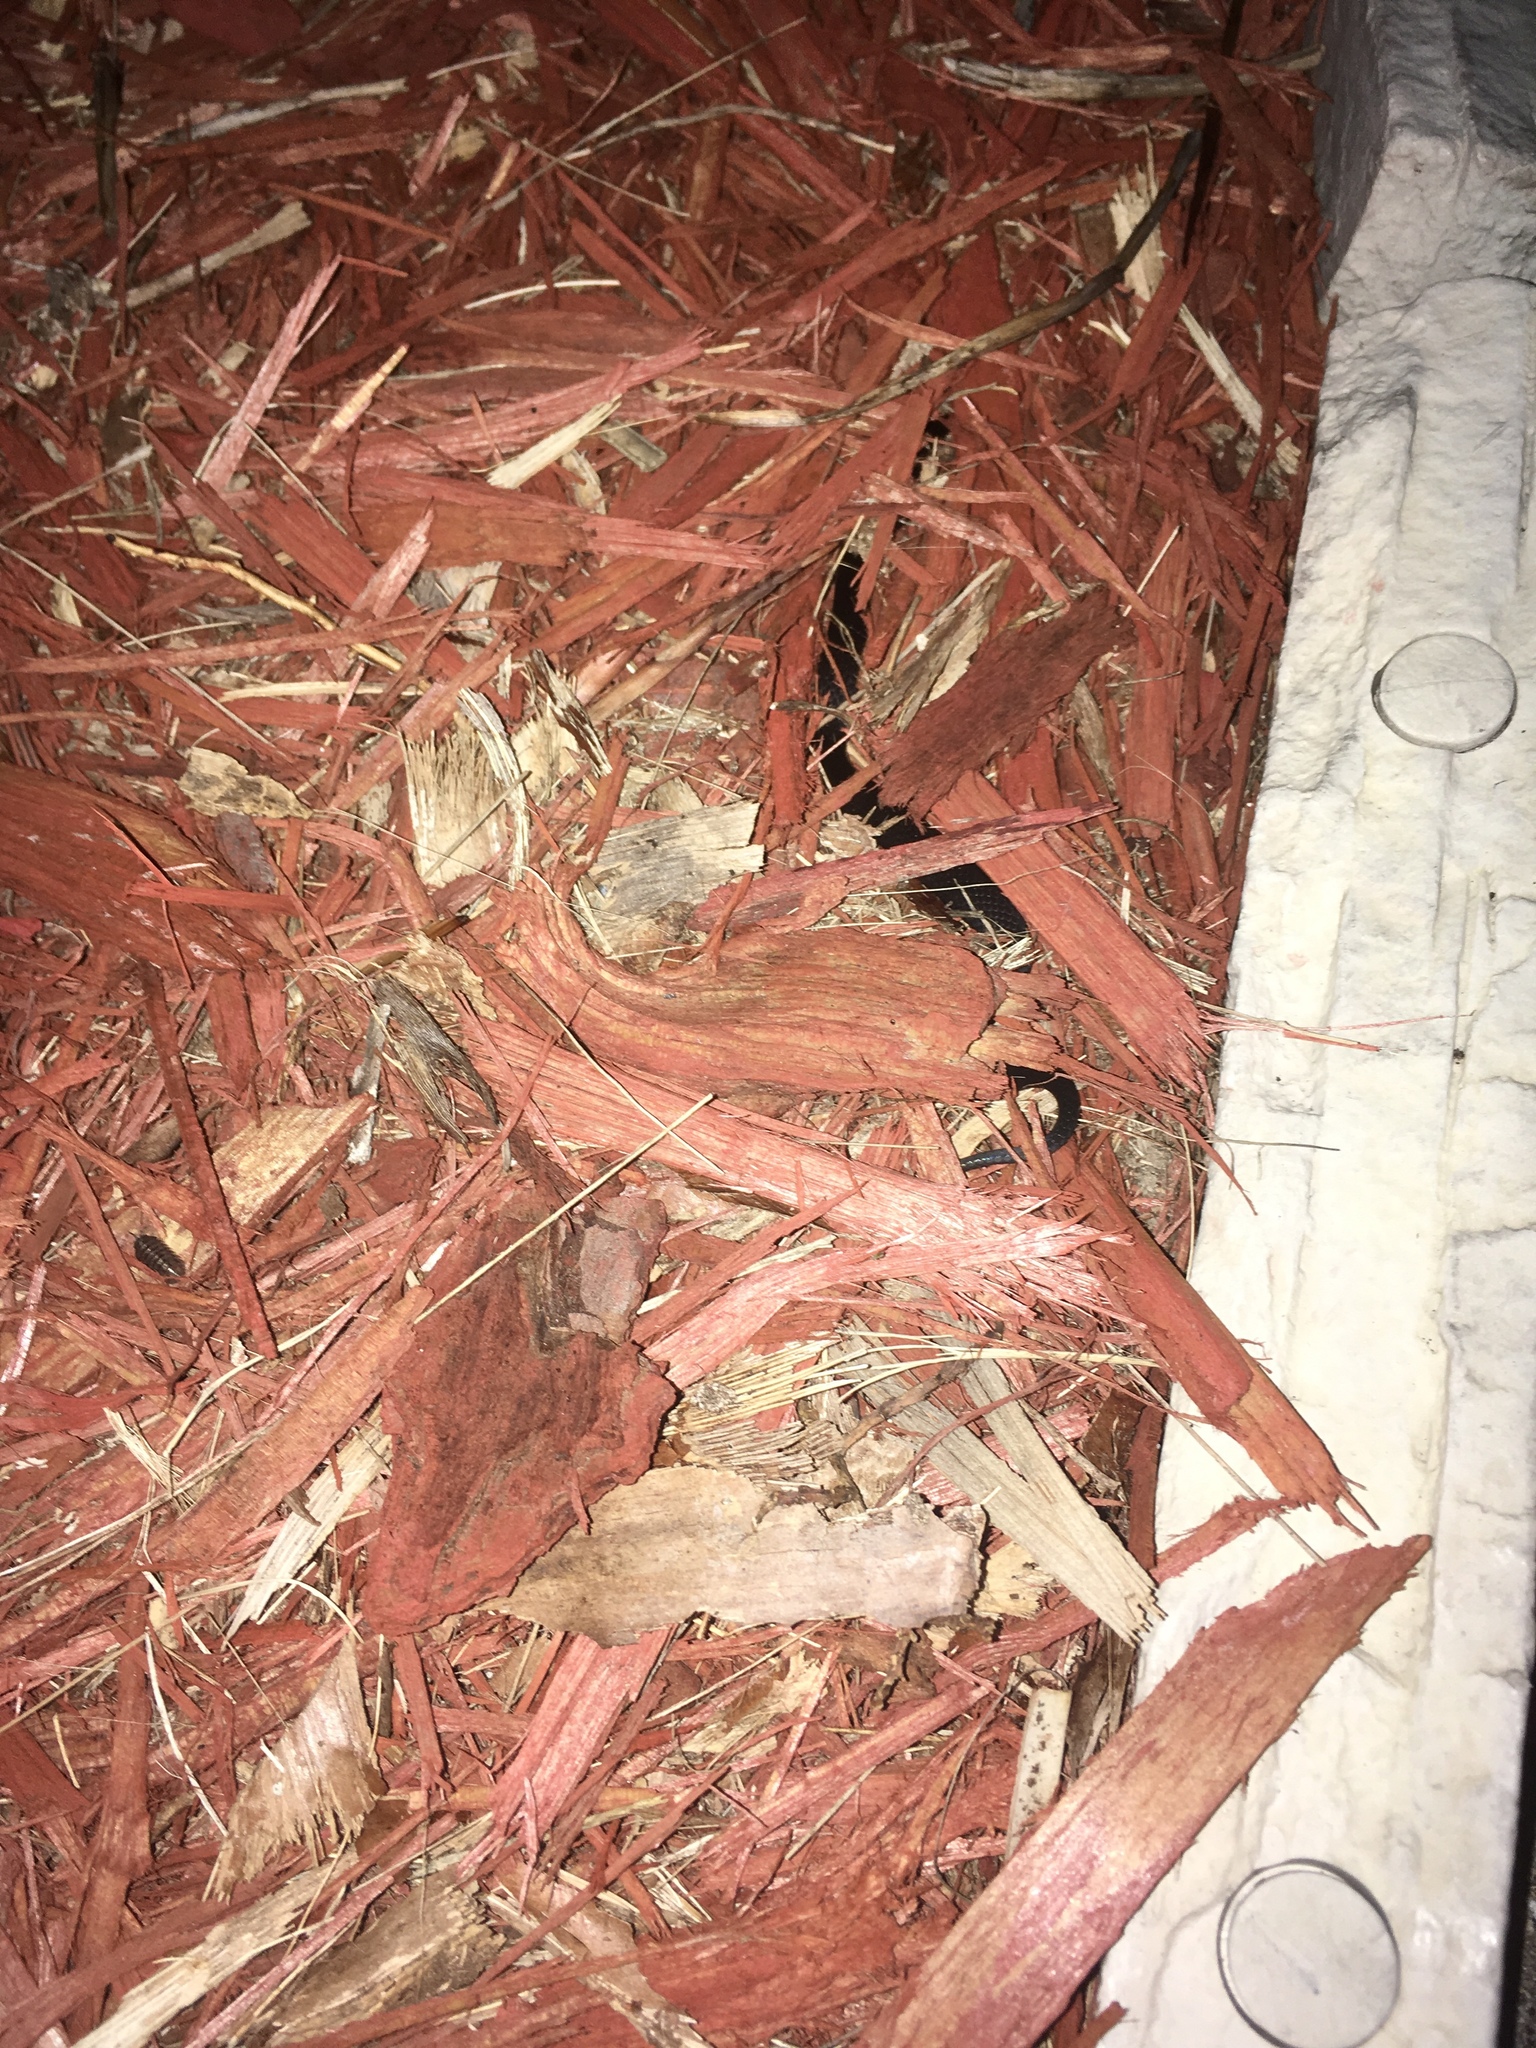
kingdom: Animalia
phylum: Chordata
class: Squamata
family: Colubridae
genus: Diadophis
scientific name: Diadophis punctatus
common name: Ringneck snake
